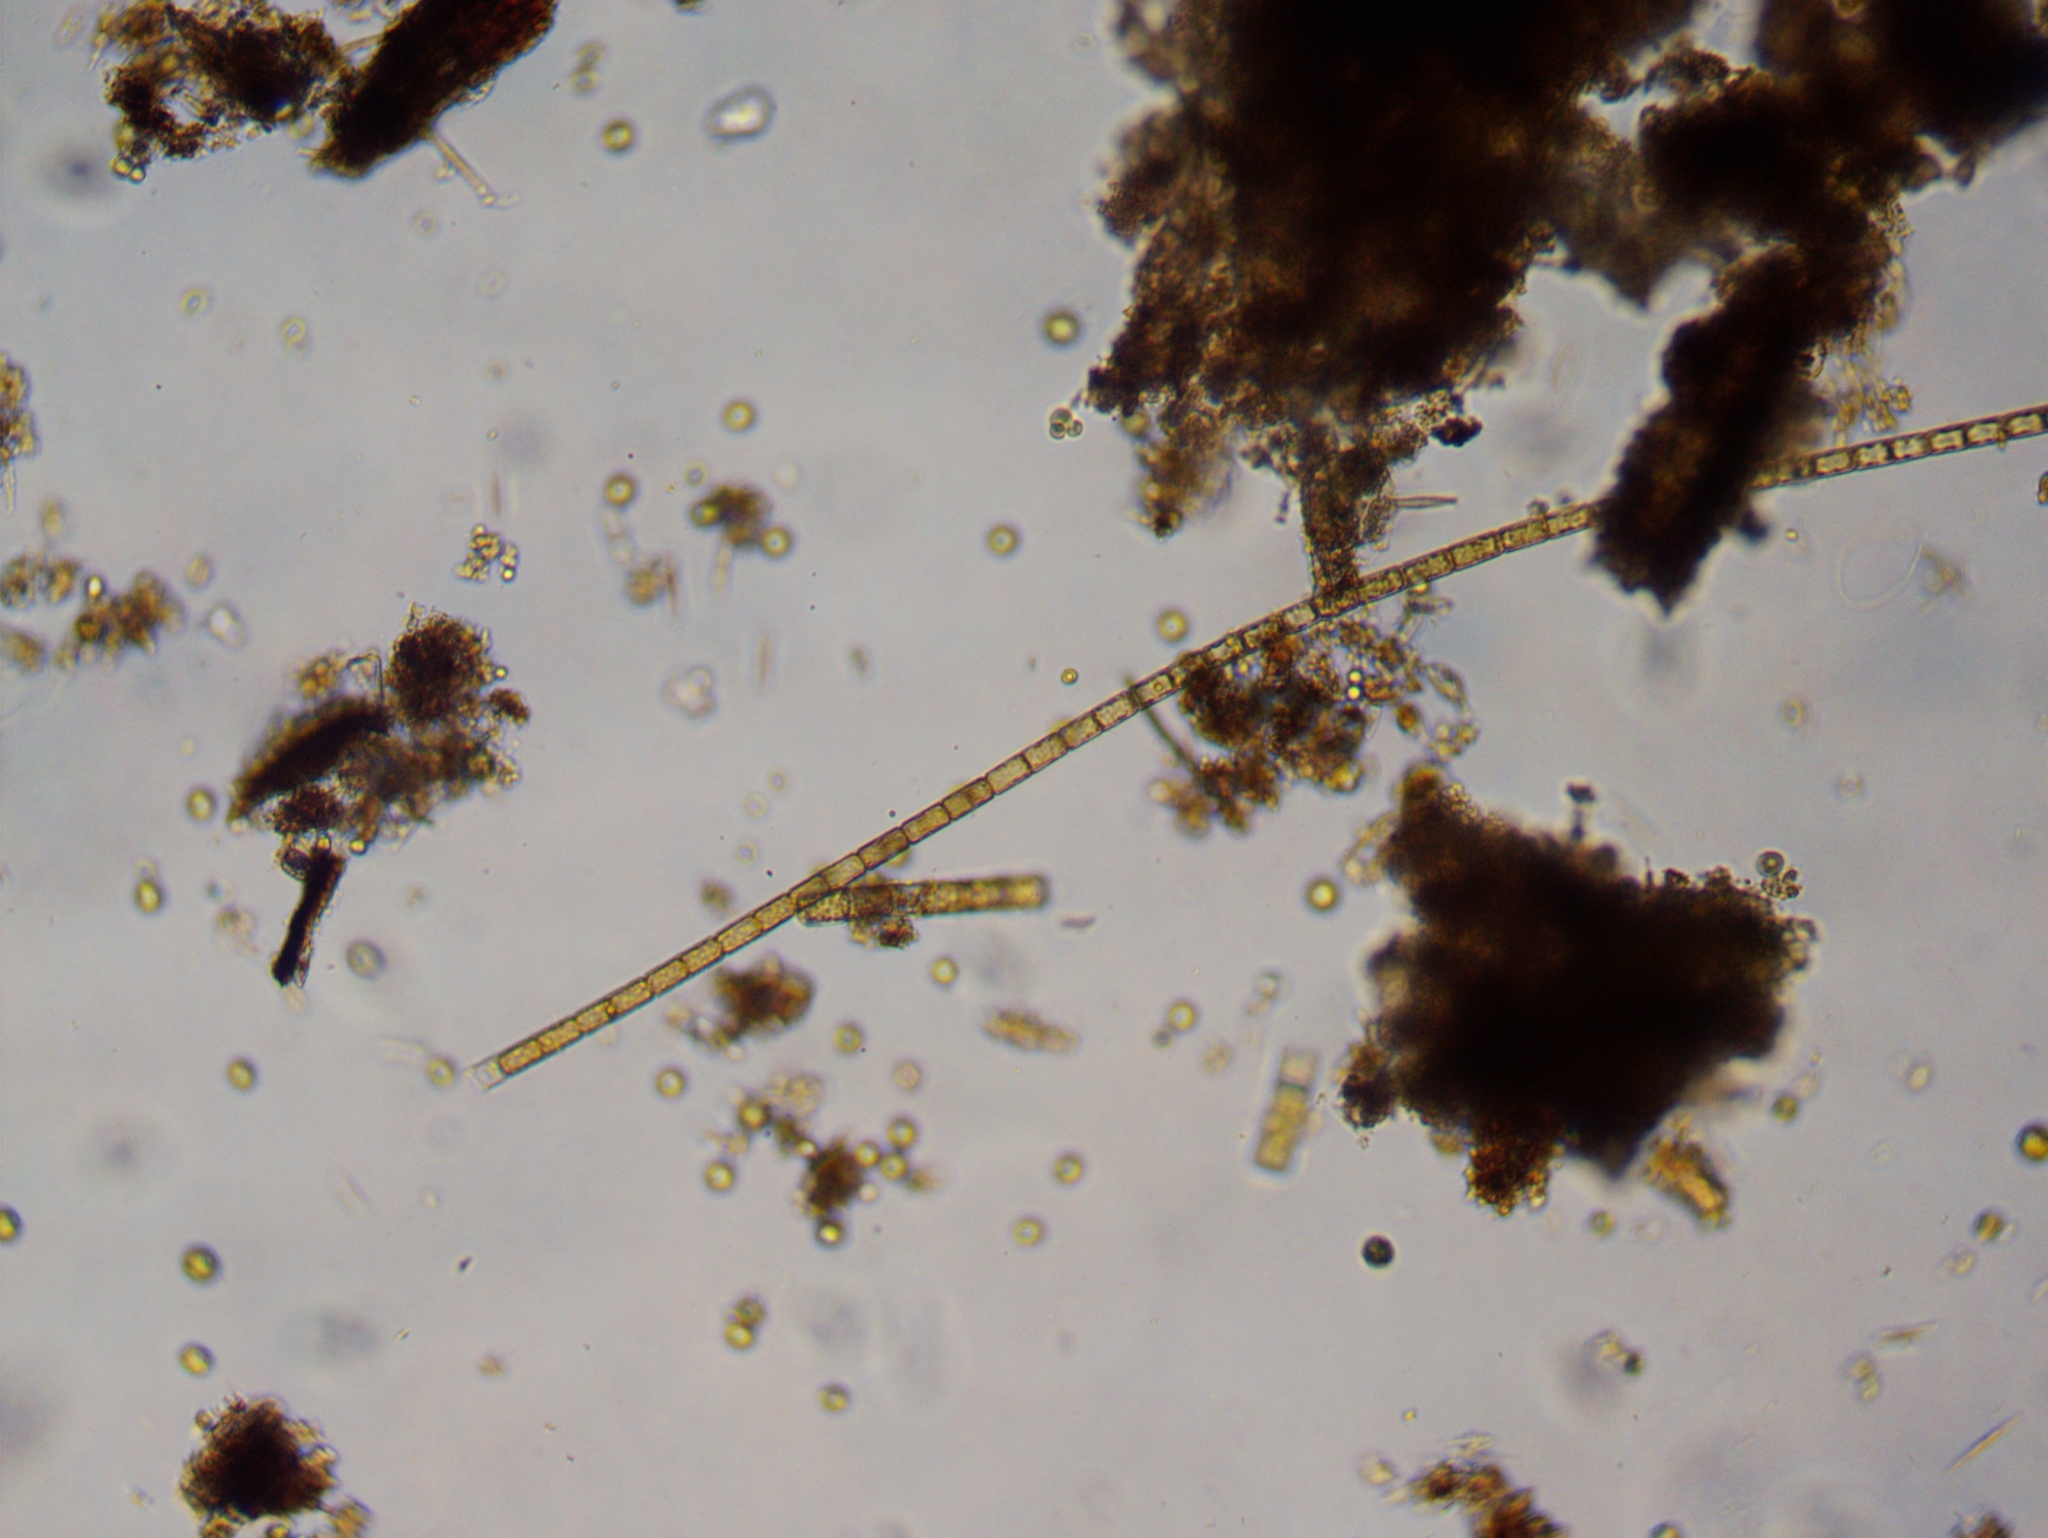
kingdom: Chromista
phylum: Ochrophyta
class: Bacillariophyceae
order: Melosirales
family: Melosiraceae
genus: Melosira
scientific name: Melosira varians
